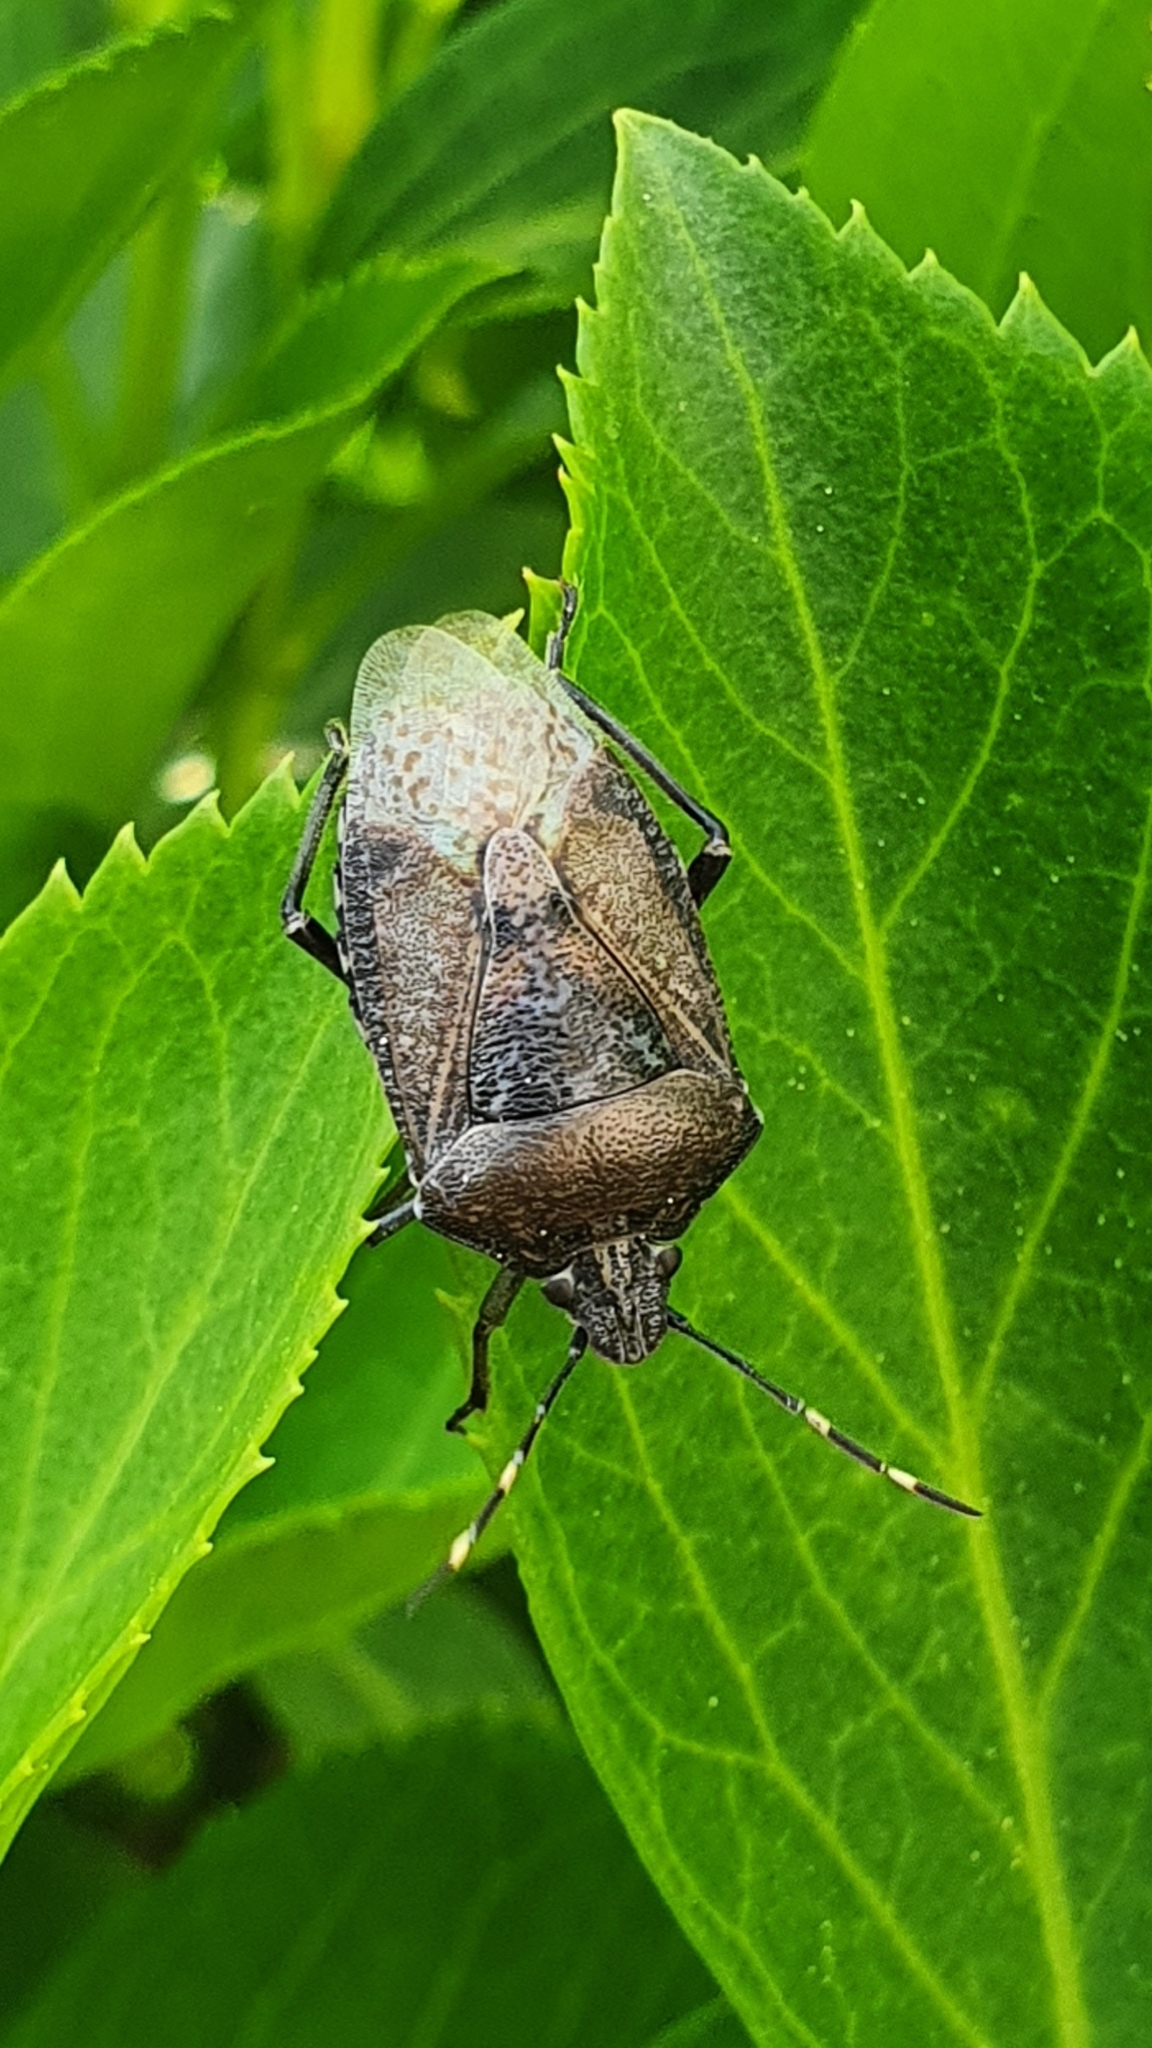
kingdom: Animalia
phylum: Arthropoda
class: Insecta
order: Hemiptera
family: Pentatomidae
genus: Rhaphigaster
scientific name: Rhaphigaster nebulosa
